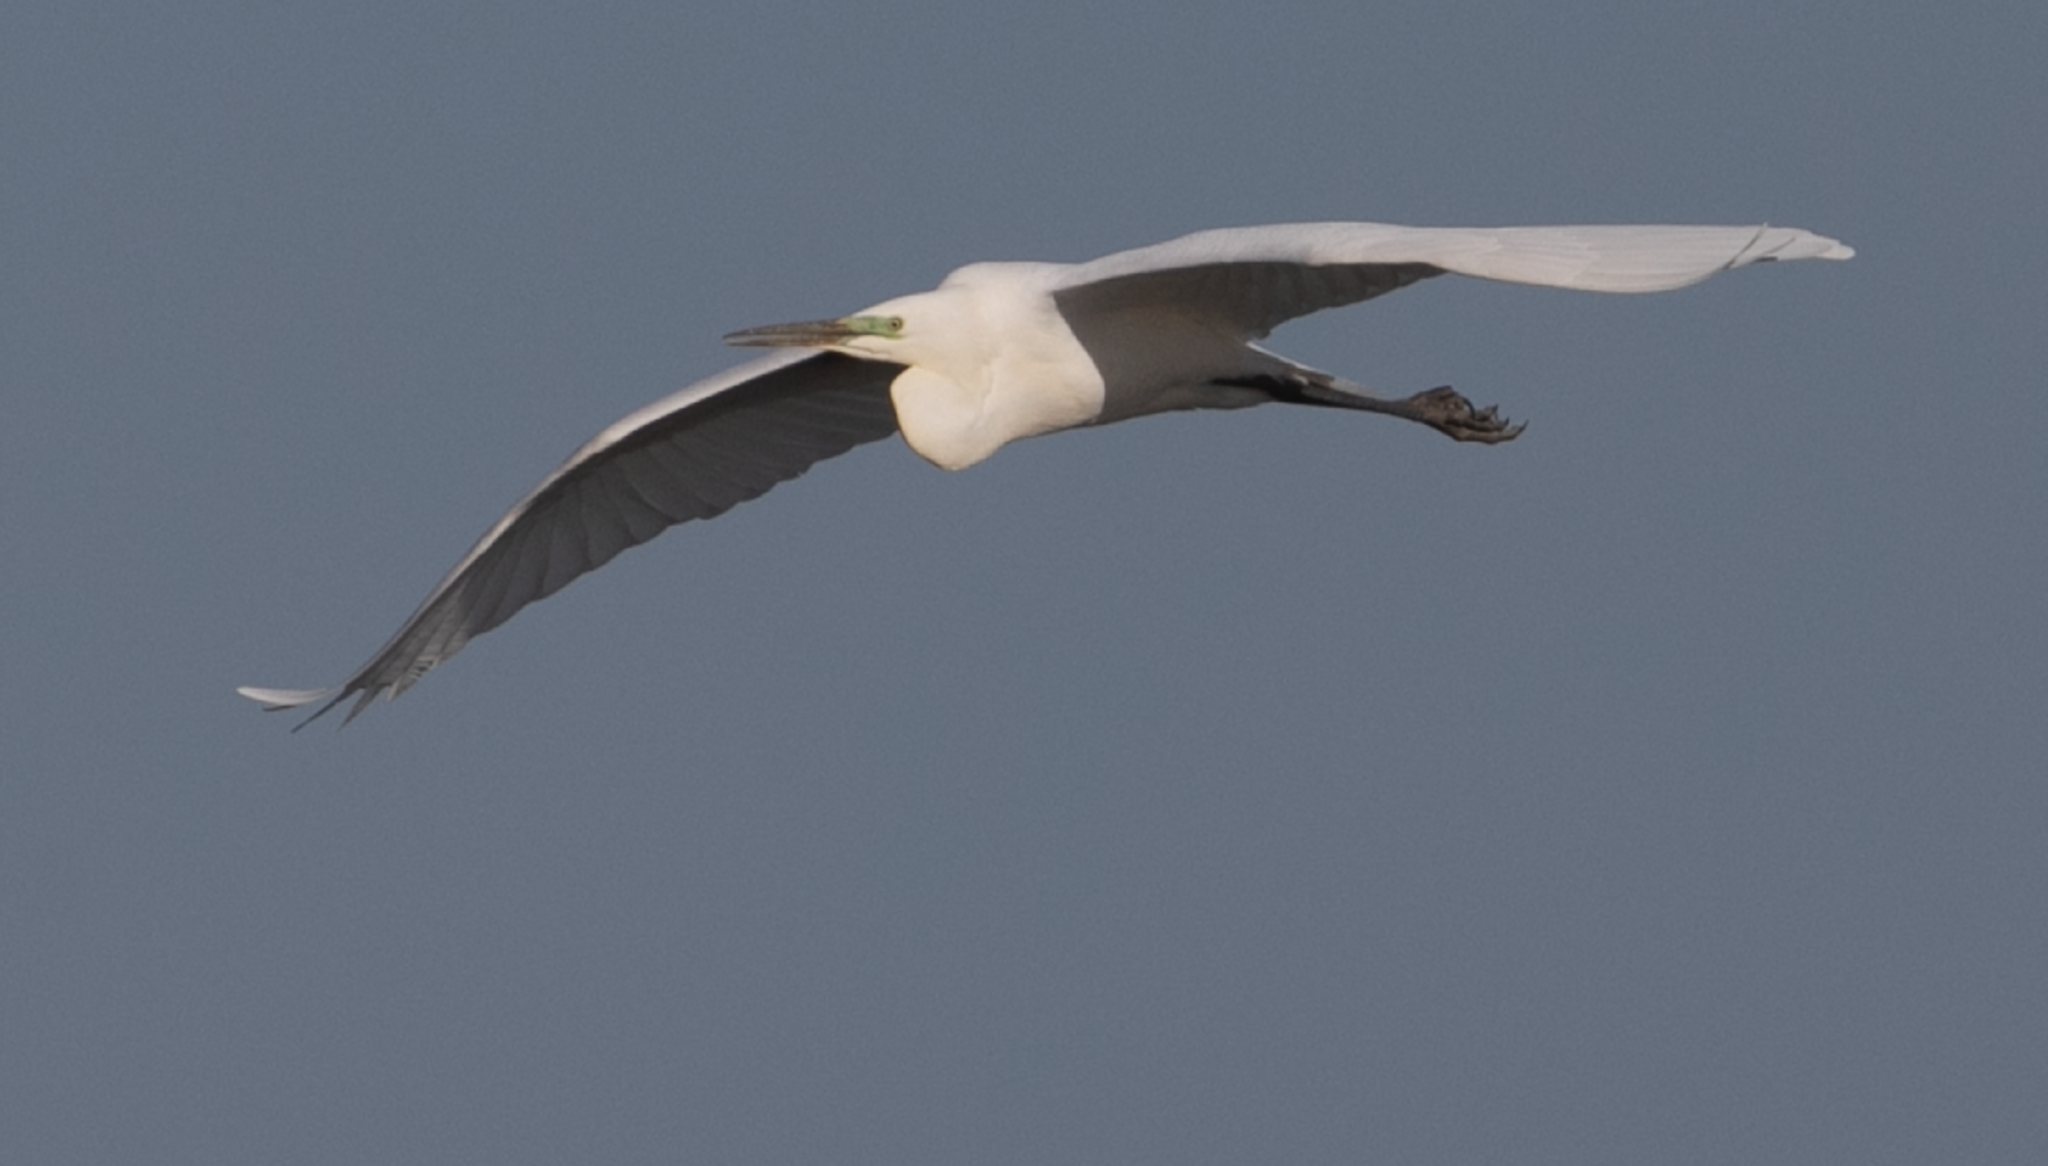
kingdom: Animalia
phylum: Chordata
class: Aves
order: Pelecaniformes
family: Ardeidae
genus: Ardea
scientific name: Ardea alba
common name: Great egret
